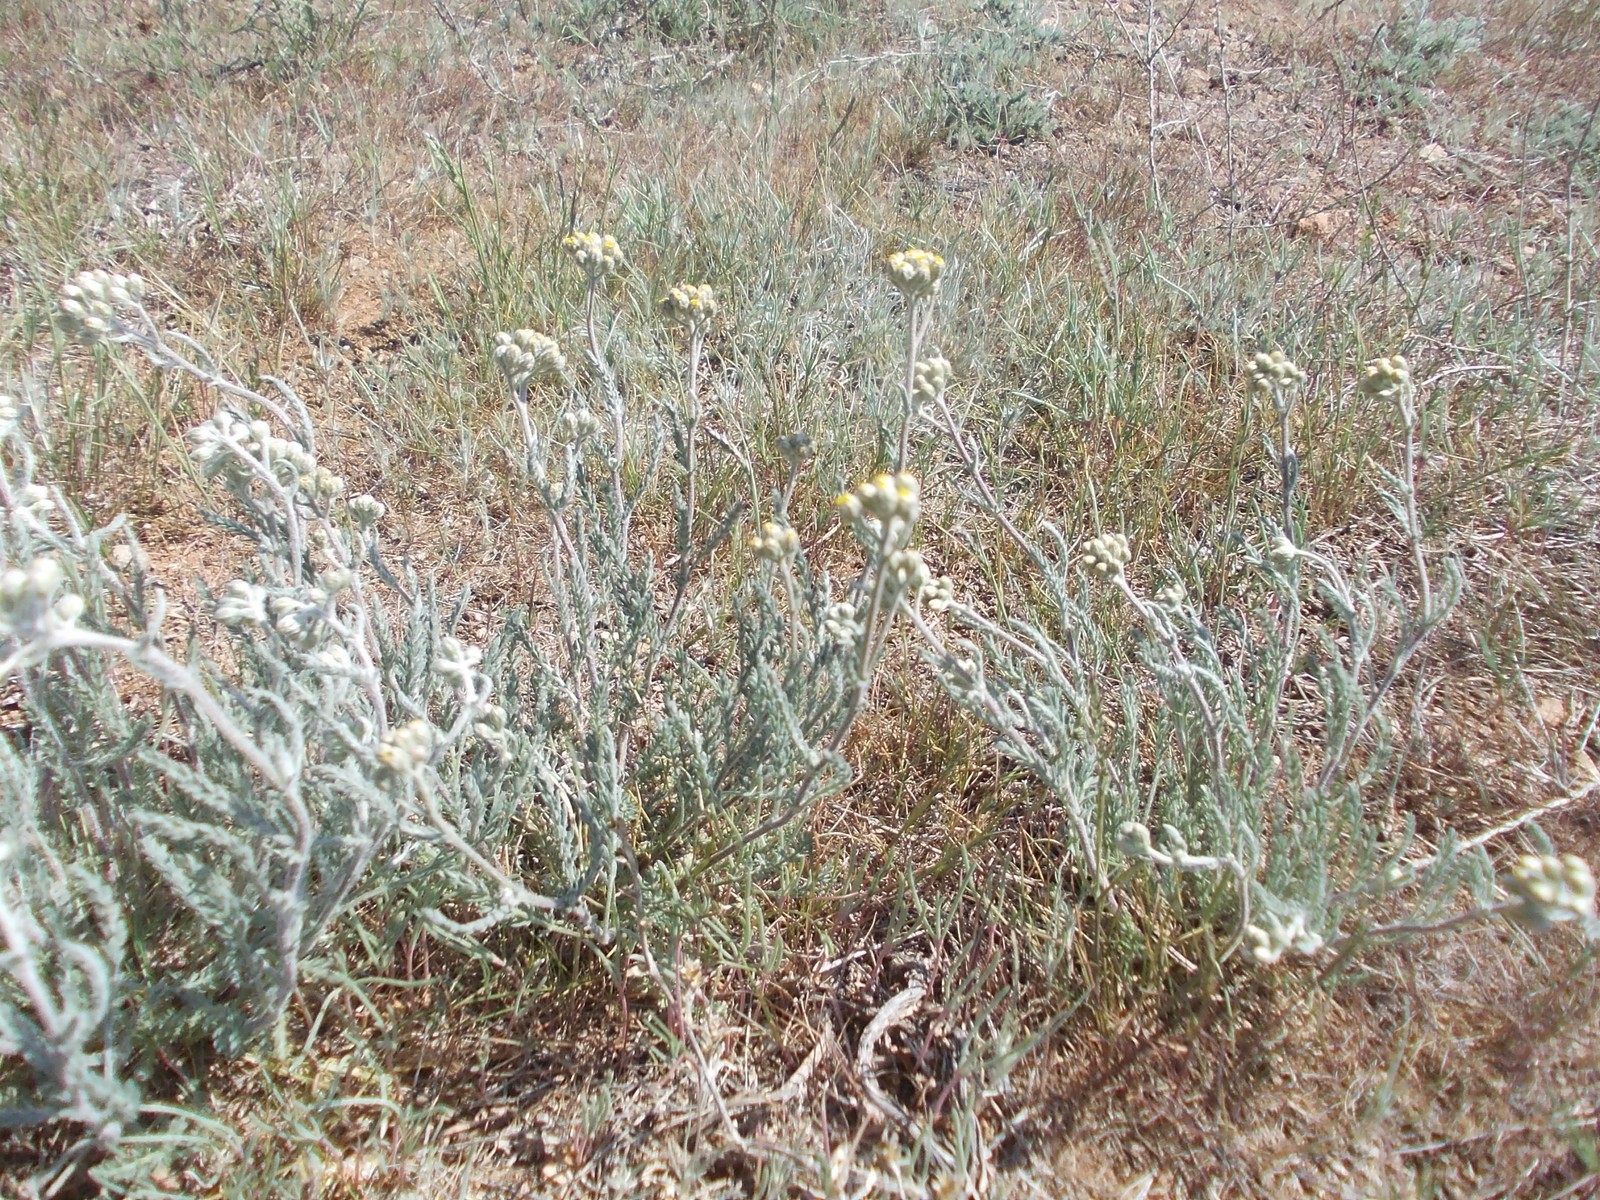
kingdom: Plantae
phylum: Tracheophyta
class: Magnoliopsida
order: Asterales
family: Asteraceae
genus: Achillea
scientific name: Achillea leptophylla
